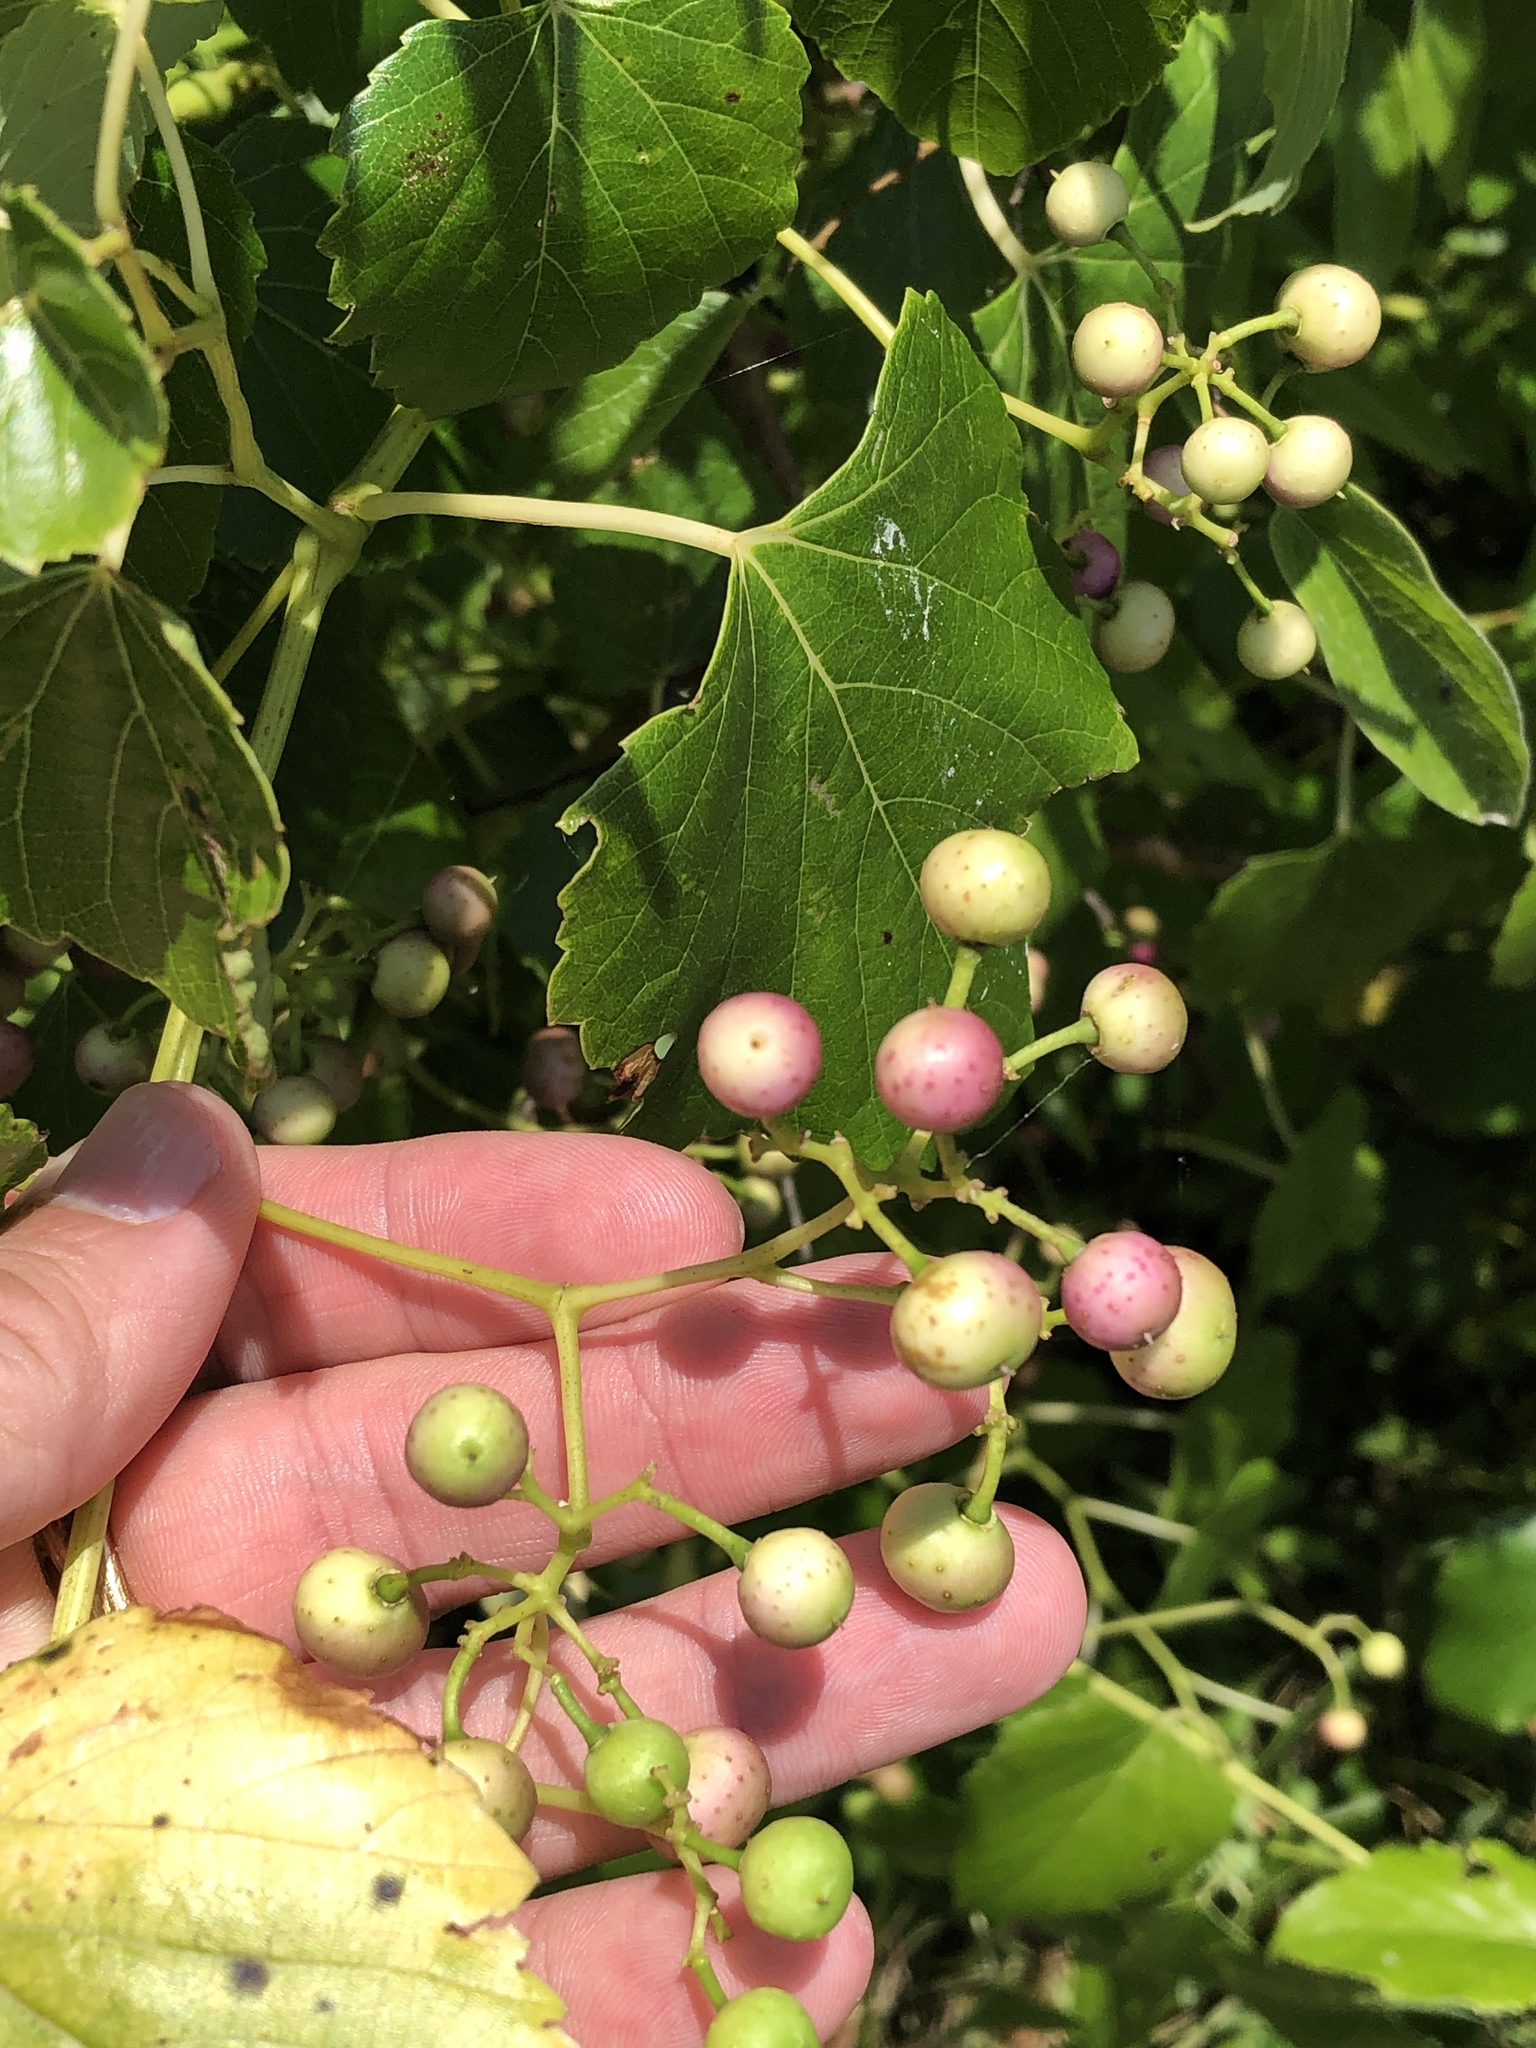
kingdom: Plantae
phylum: Tracheophyta
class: Magnoliopsida
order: Vitales
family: Vitaceae
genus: Ampelopsis
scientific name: Ampelopsis cordata
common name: Heart-leaf ampelopsis
